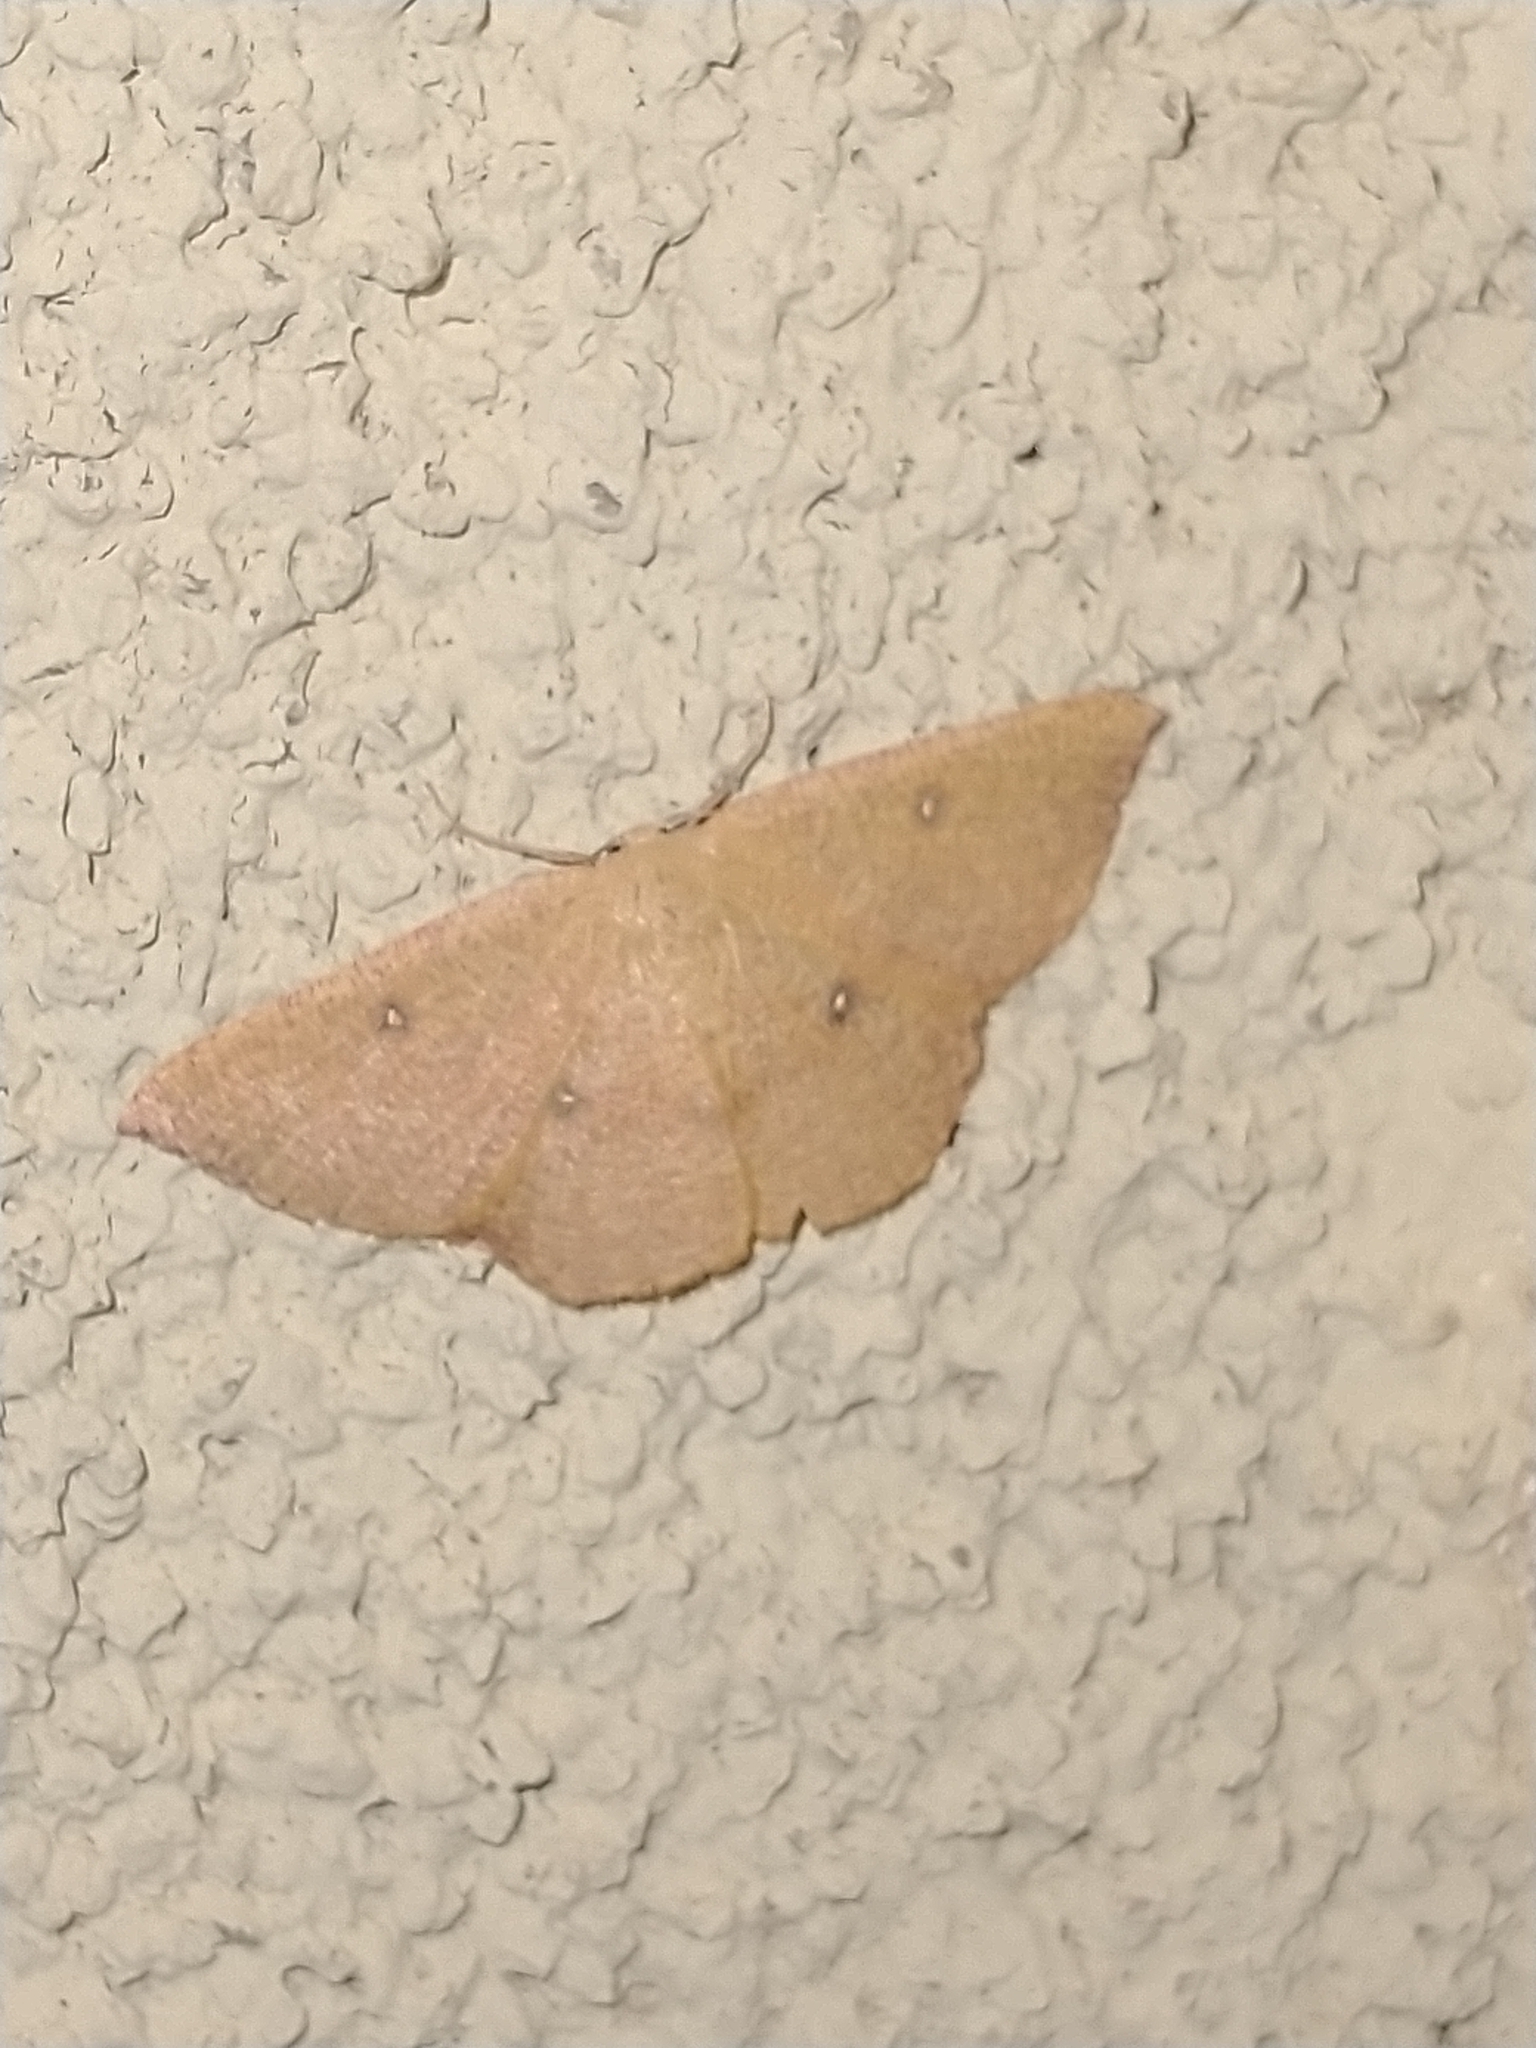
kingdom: Animalia
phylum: Arthropoda
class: Insecta
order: Lepidoptera
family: Geometridae
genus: Cyclophora
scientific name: Cyclophora puppillaria
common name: Blair's mocha
